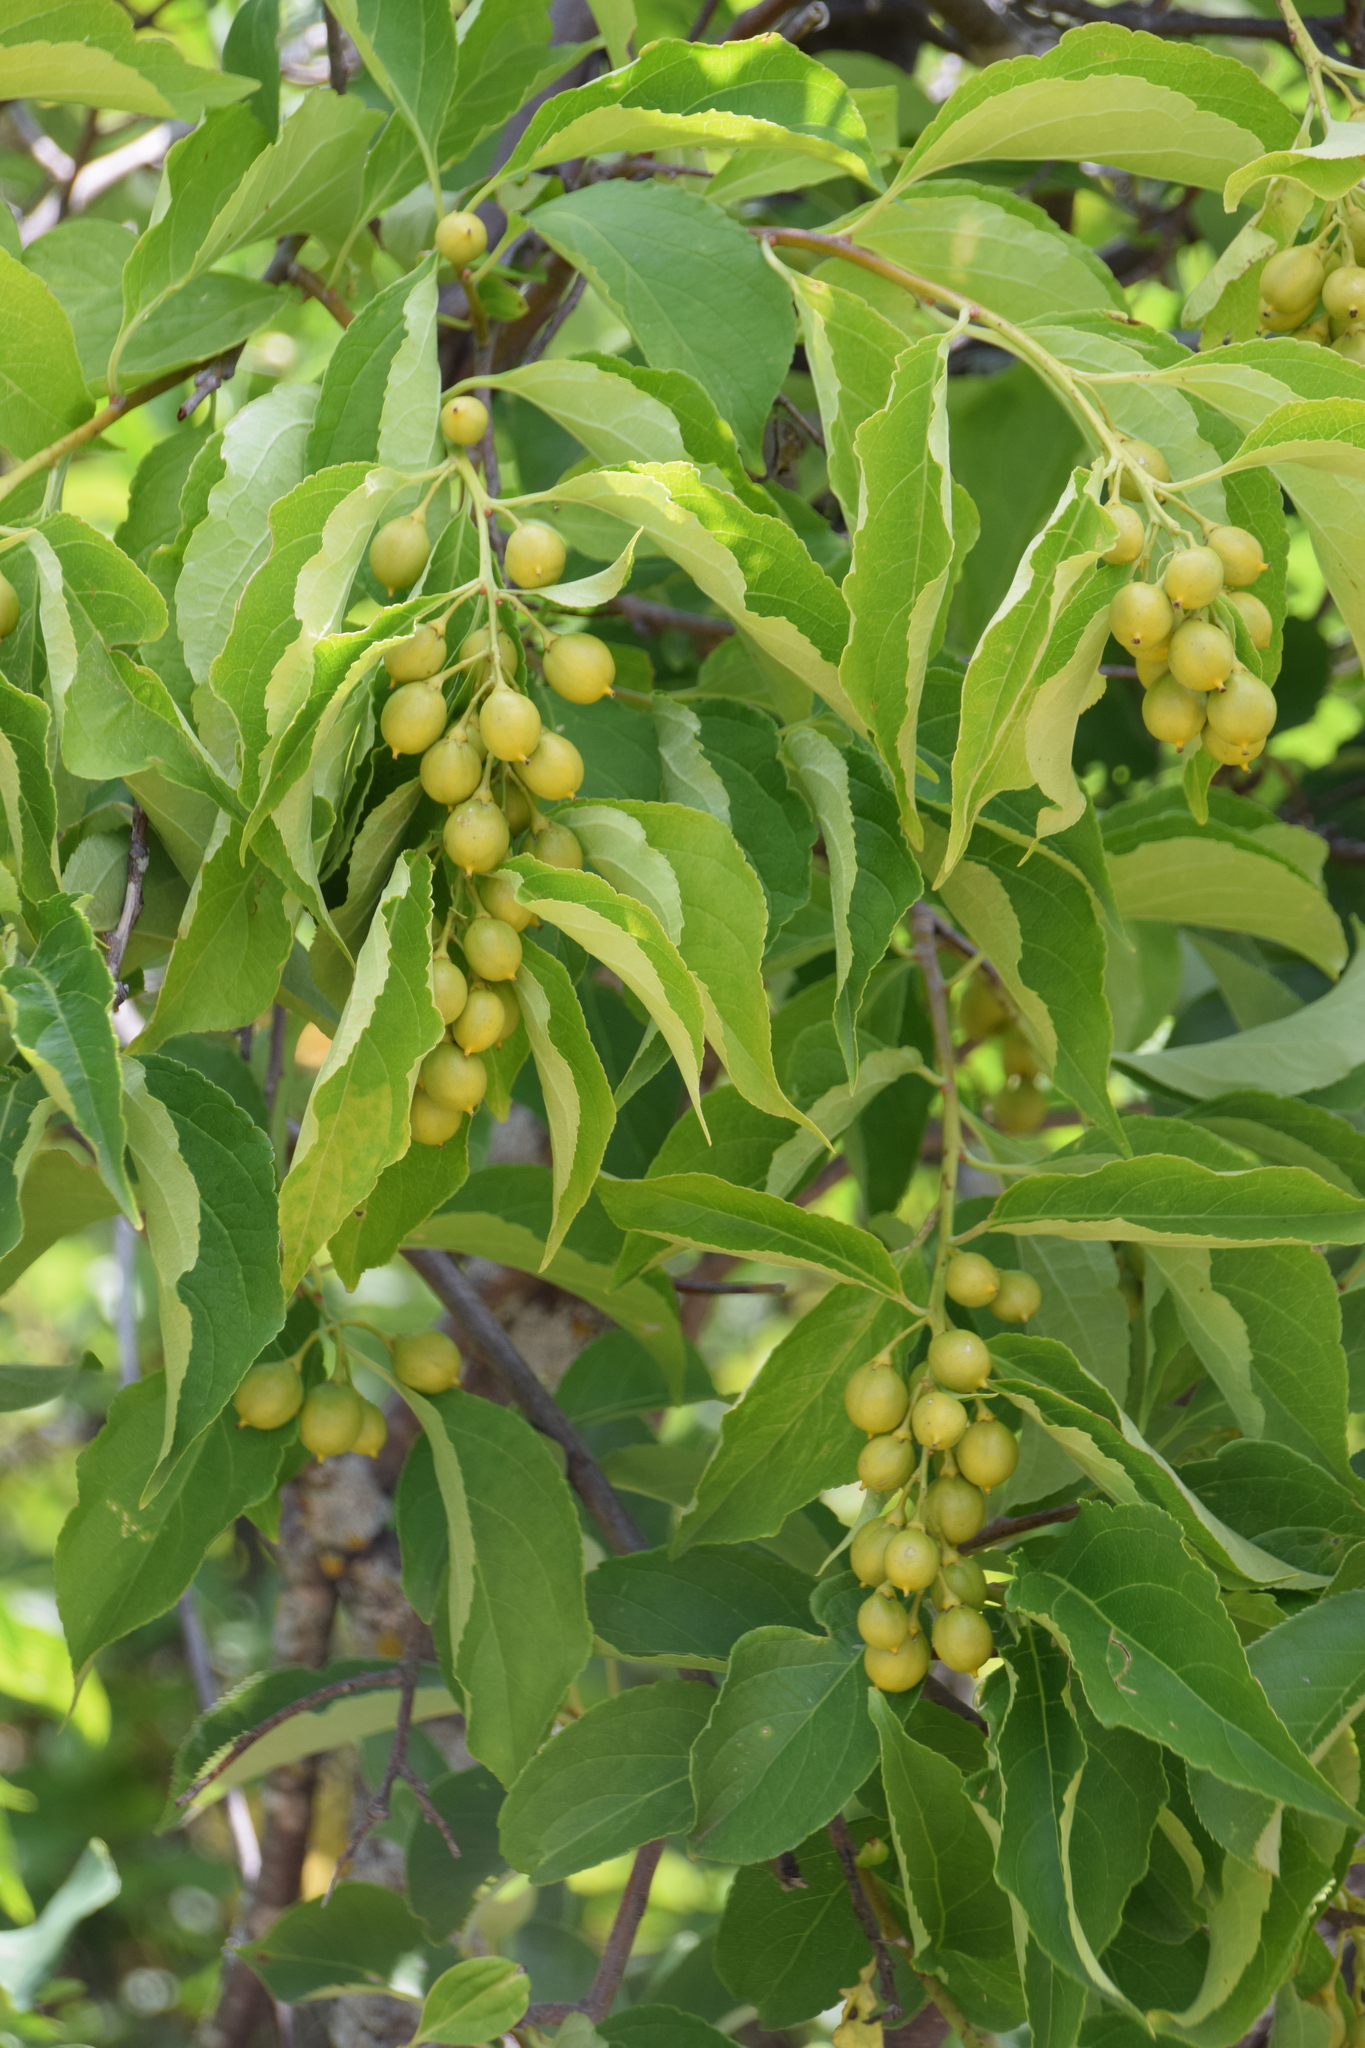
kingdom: Plantae
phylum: Tracheophyta
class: Magnoliopsida
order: Celastrales
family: Celastraceae
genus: Celastrus
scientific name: Celastrus scandens
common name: American bittersweet
